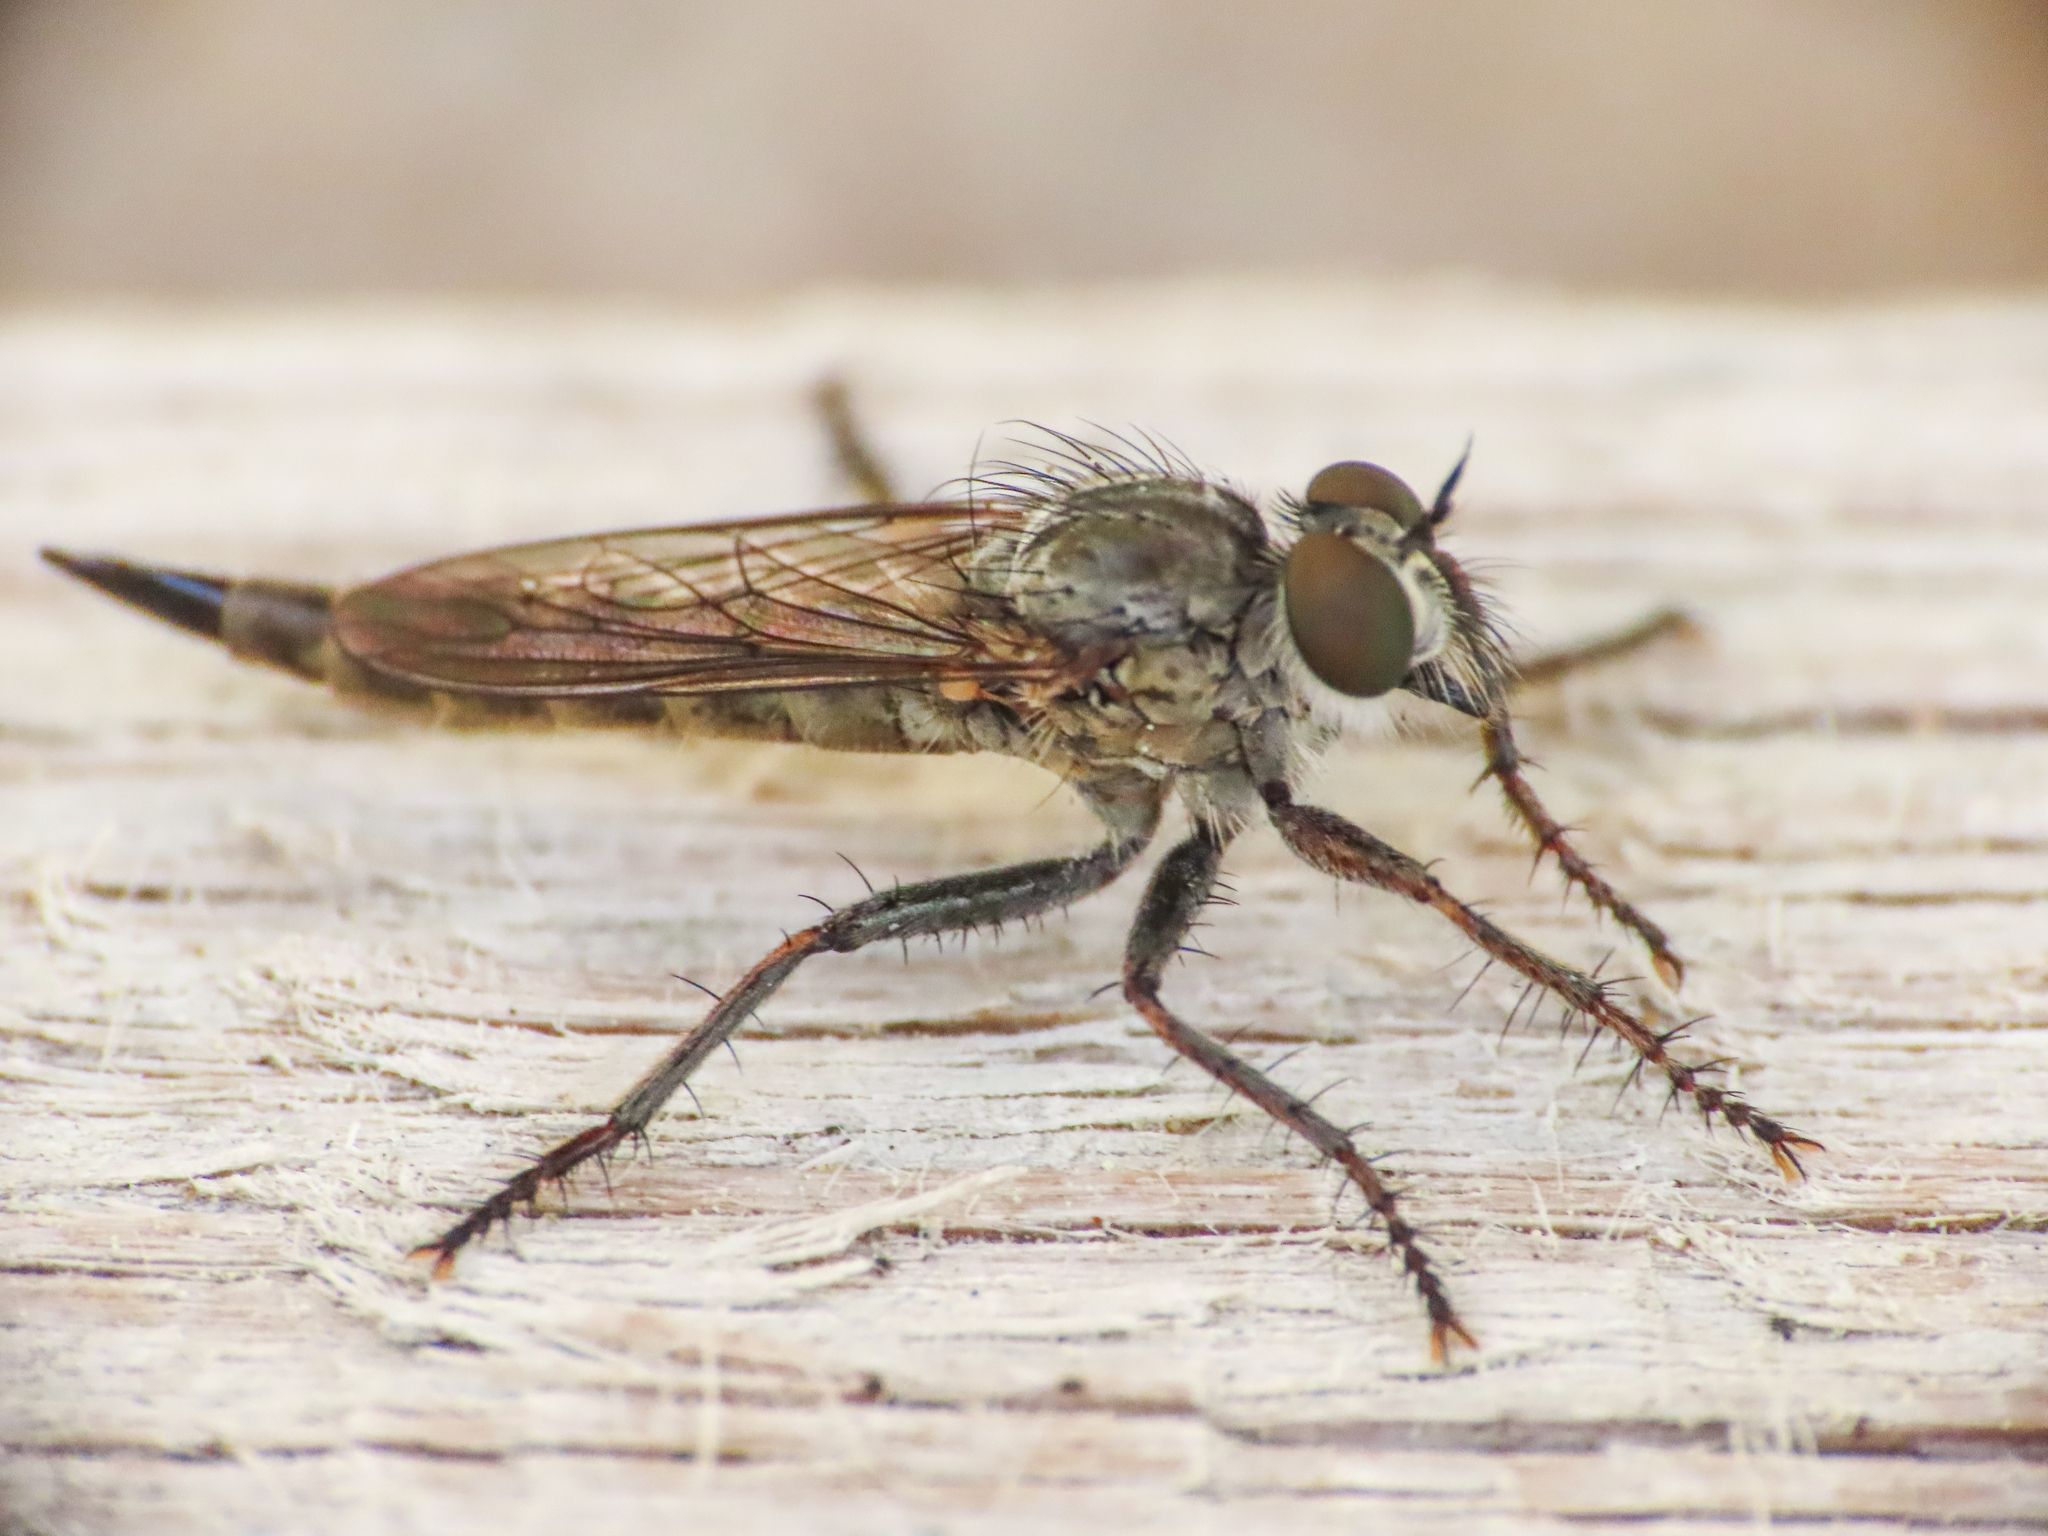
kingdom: Animalia
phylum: Arthropoda
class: Insecta
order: Diptera
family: Asilidae
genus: Machimus
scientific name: Machimus minusculus
